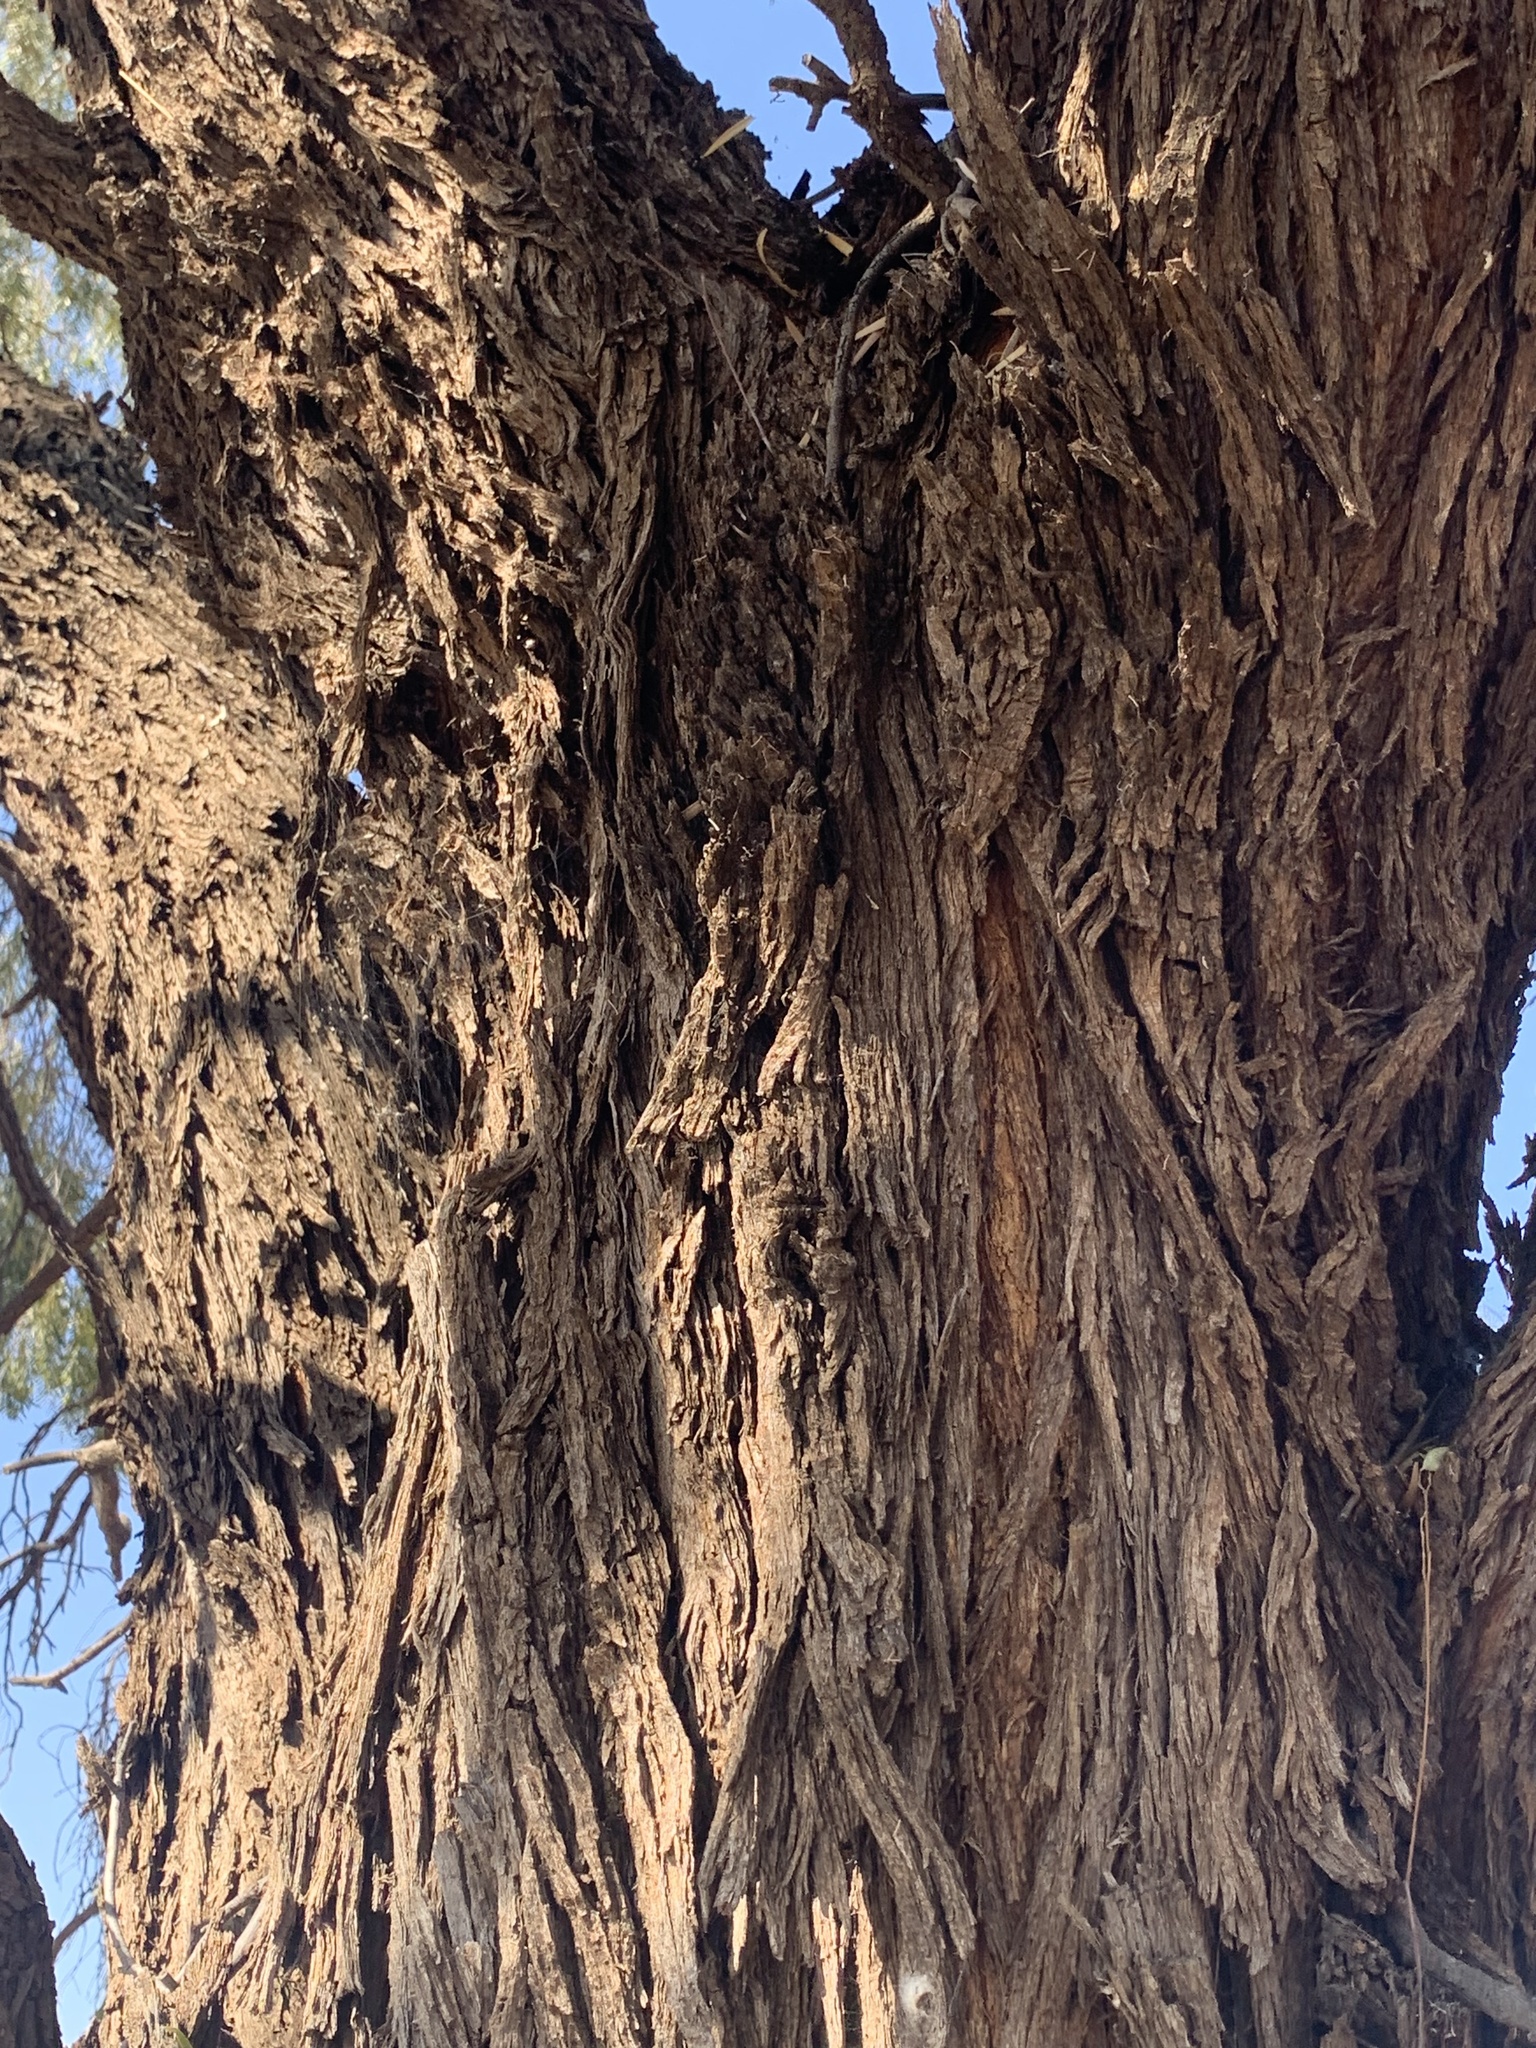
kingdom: Plantae
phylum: Tracheophyta
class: Magnoliopsida
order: Fabales
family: Fabaceae
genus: Acacia
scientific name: Acacia pendula
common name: Weeping myall
